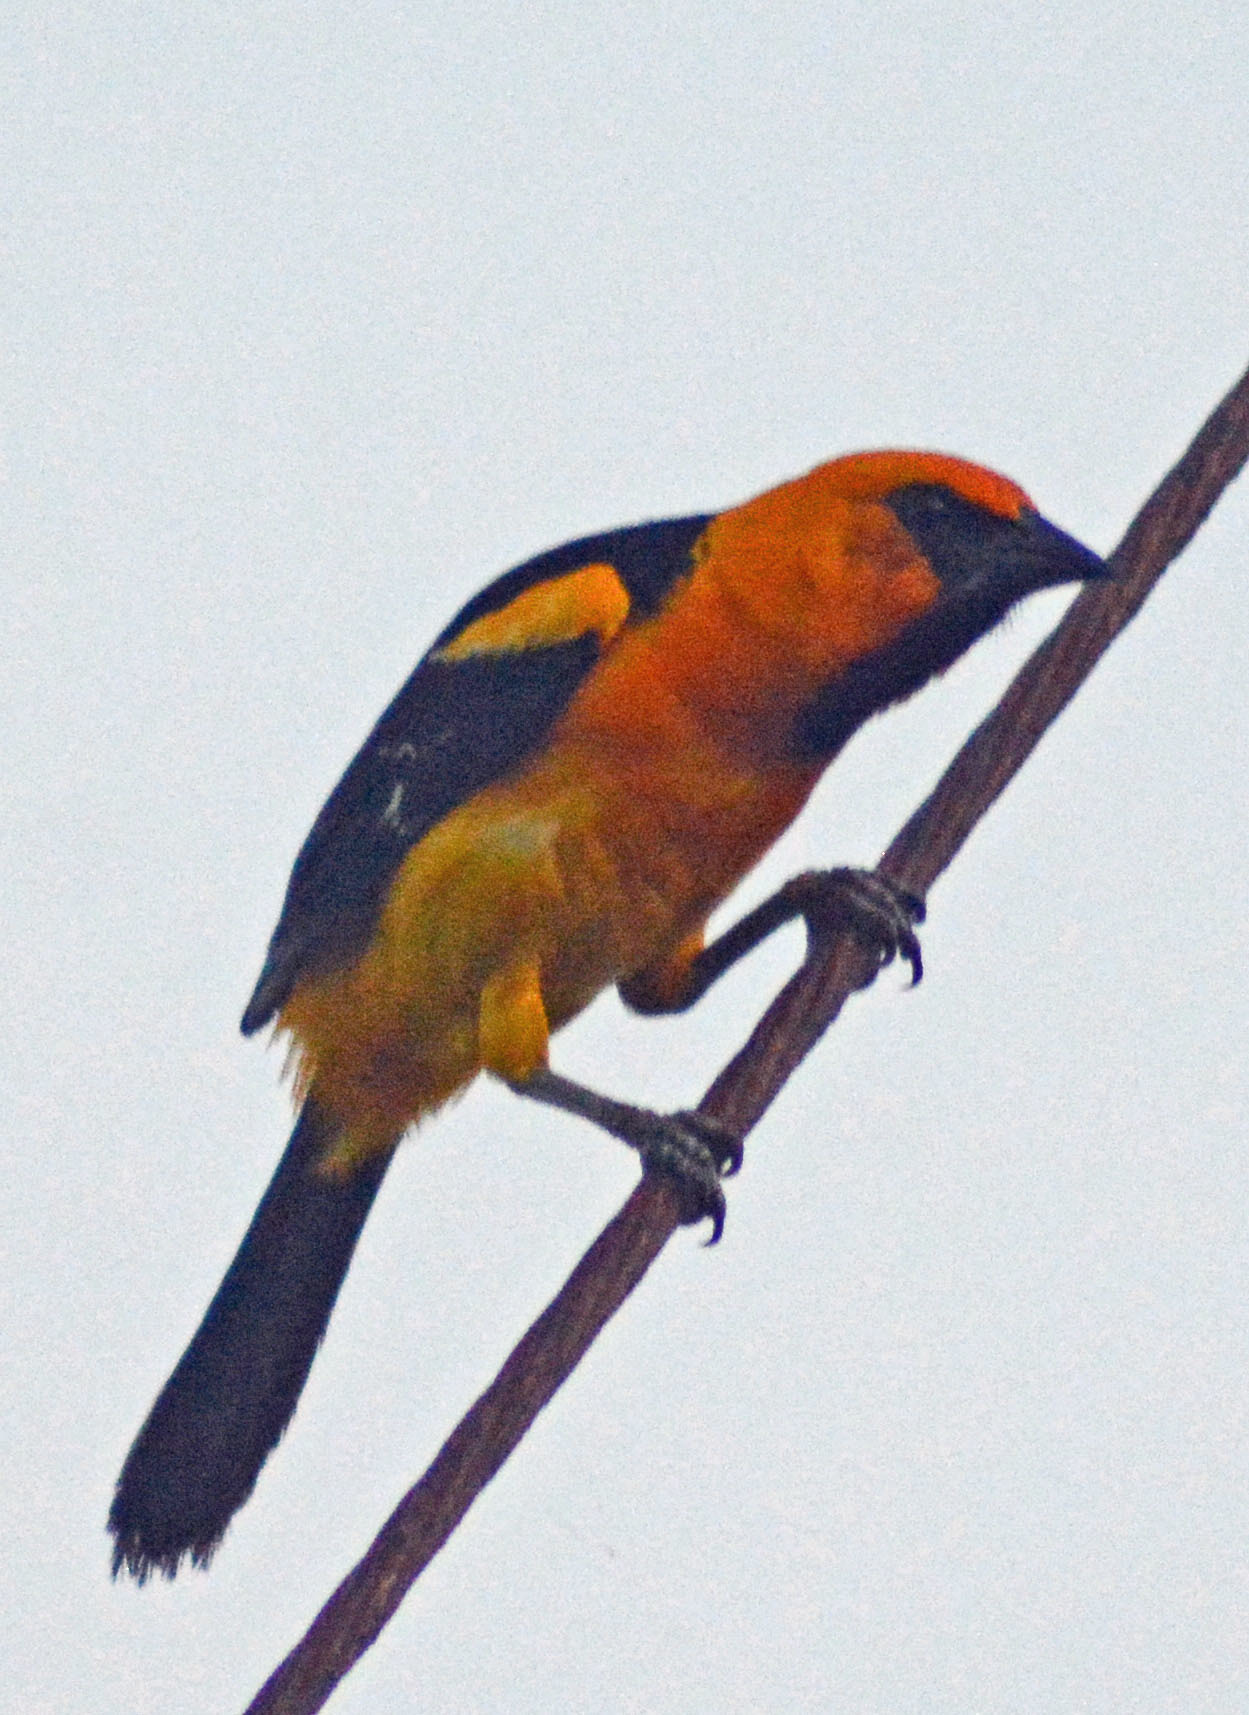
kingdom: Animalia
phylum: Chordata
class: Aves
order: Passeriformes
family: Icteridae
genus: Icterus
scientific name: Icterus gularis
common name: Altamira oriole
